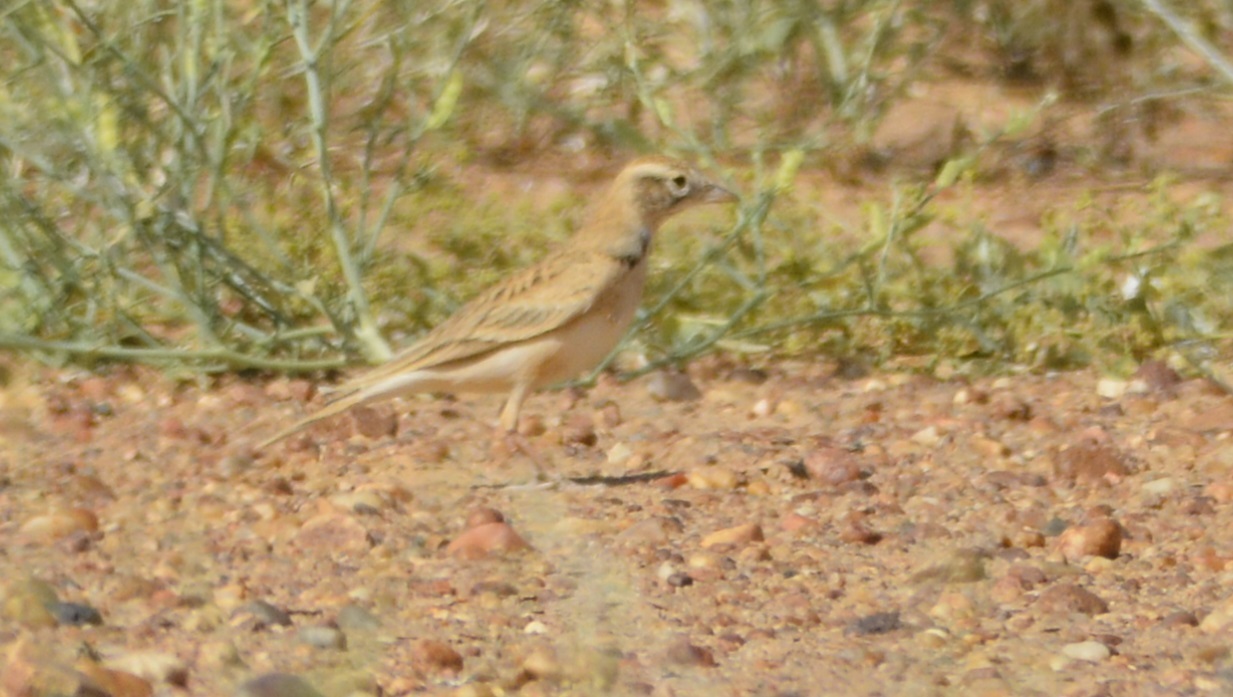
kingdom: Animalia
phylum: Chordata
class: Aves
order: Passeriformes
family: Alaudidae
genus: Eremalauda
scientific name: Eremalauda dunni
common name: Dunn's lark
